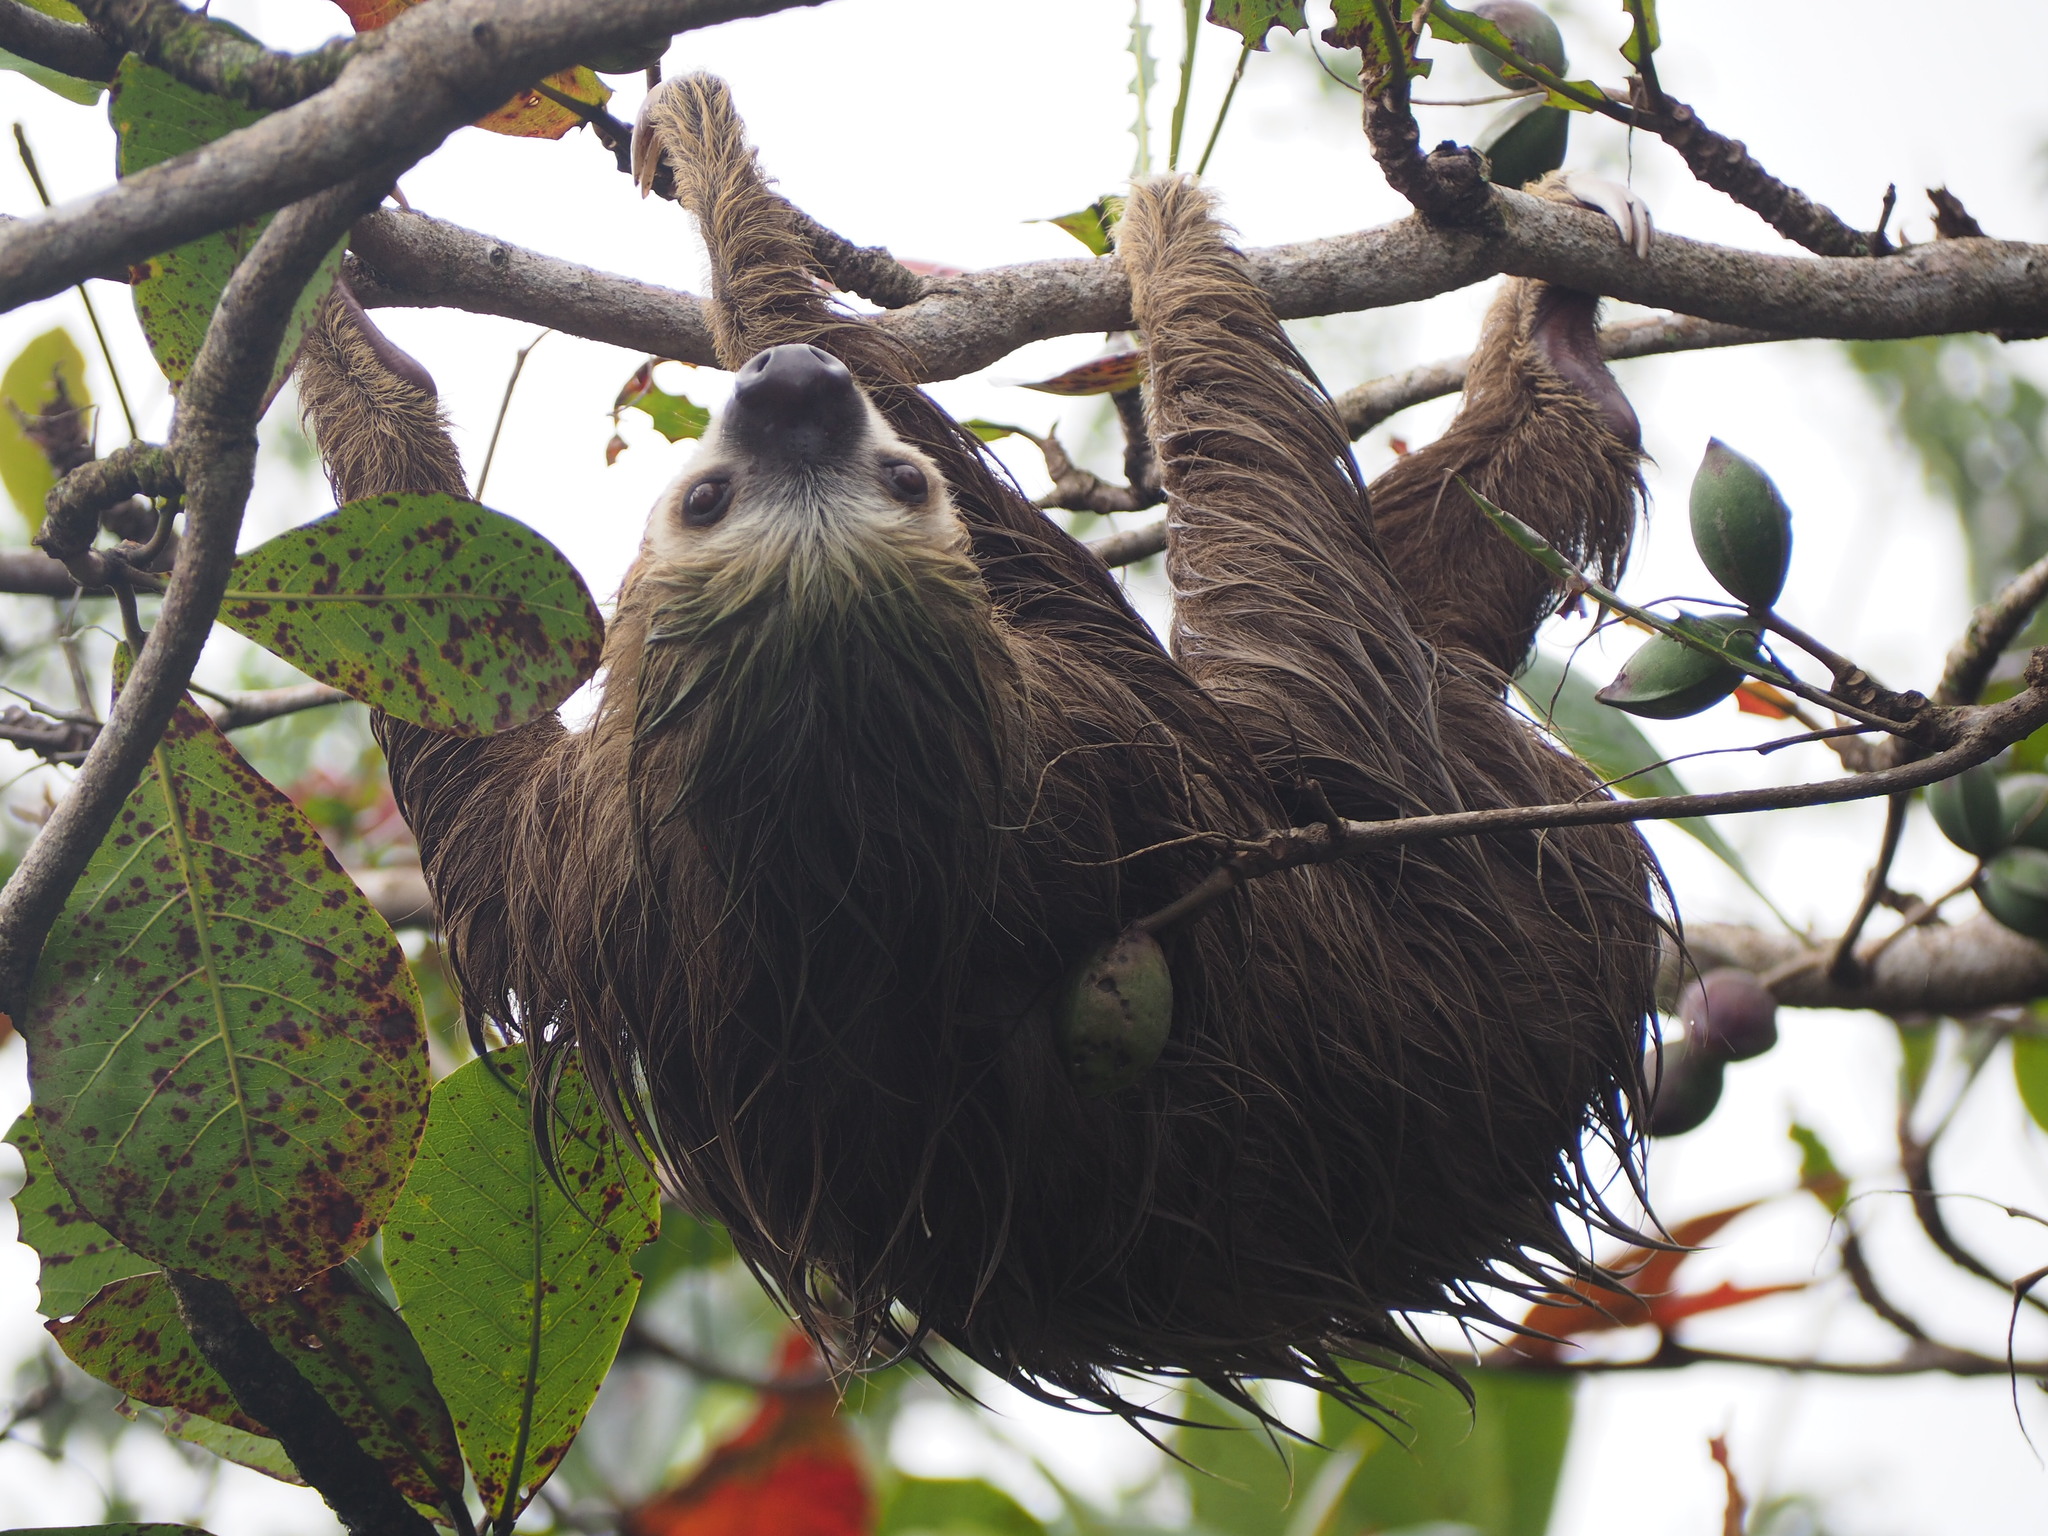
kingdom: Animalia
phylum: Chordata
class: Mammalia
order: Pilosa
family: Megalonychidae
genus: Choloepus
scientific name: Choloepus hoffmanni
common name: Hoffmann's two-toed sloth
